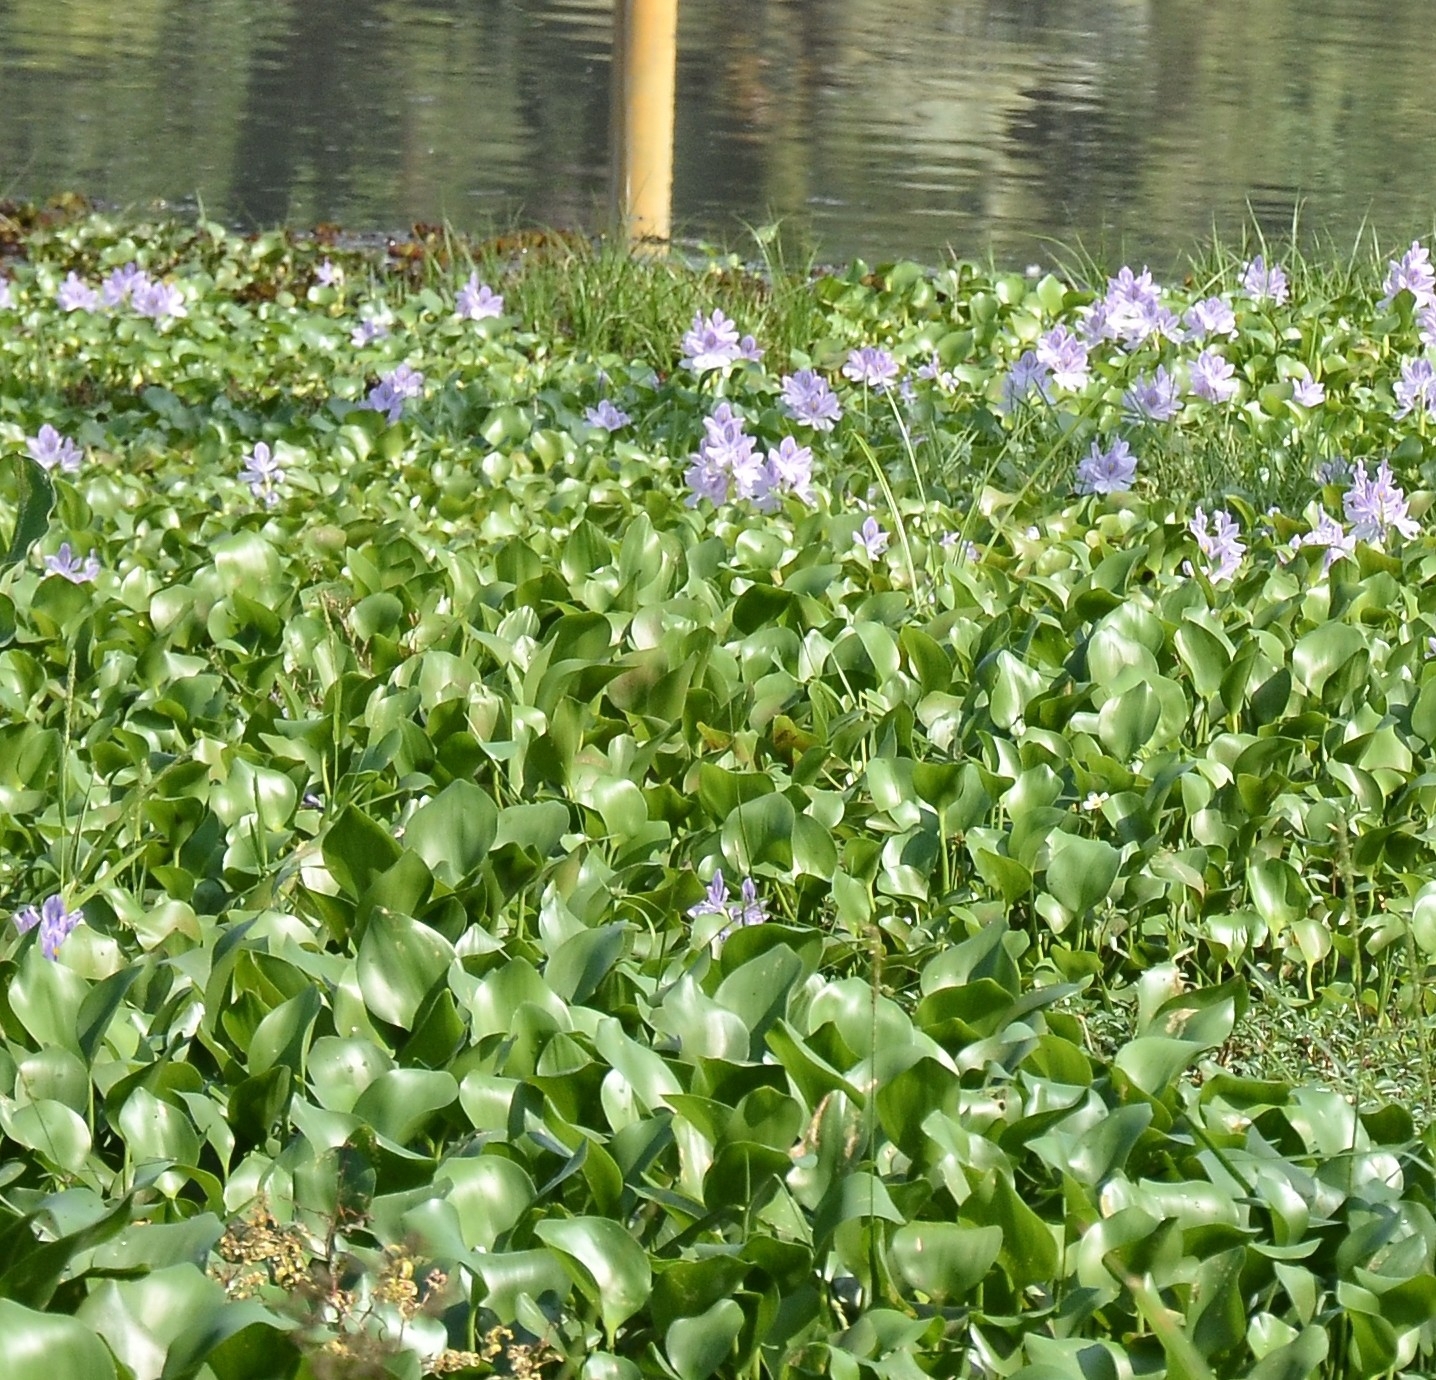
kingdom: Plantae
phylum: Tracheophyta
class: Liliopsida
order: Commelinales
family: Pontederiaceae
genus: Pontederia
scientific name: Pontederia crassipes
